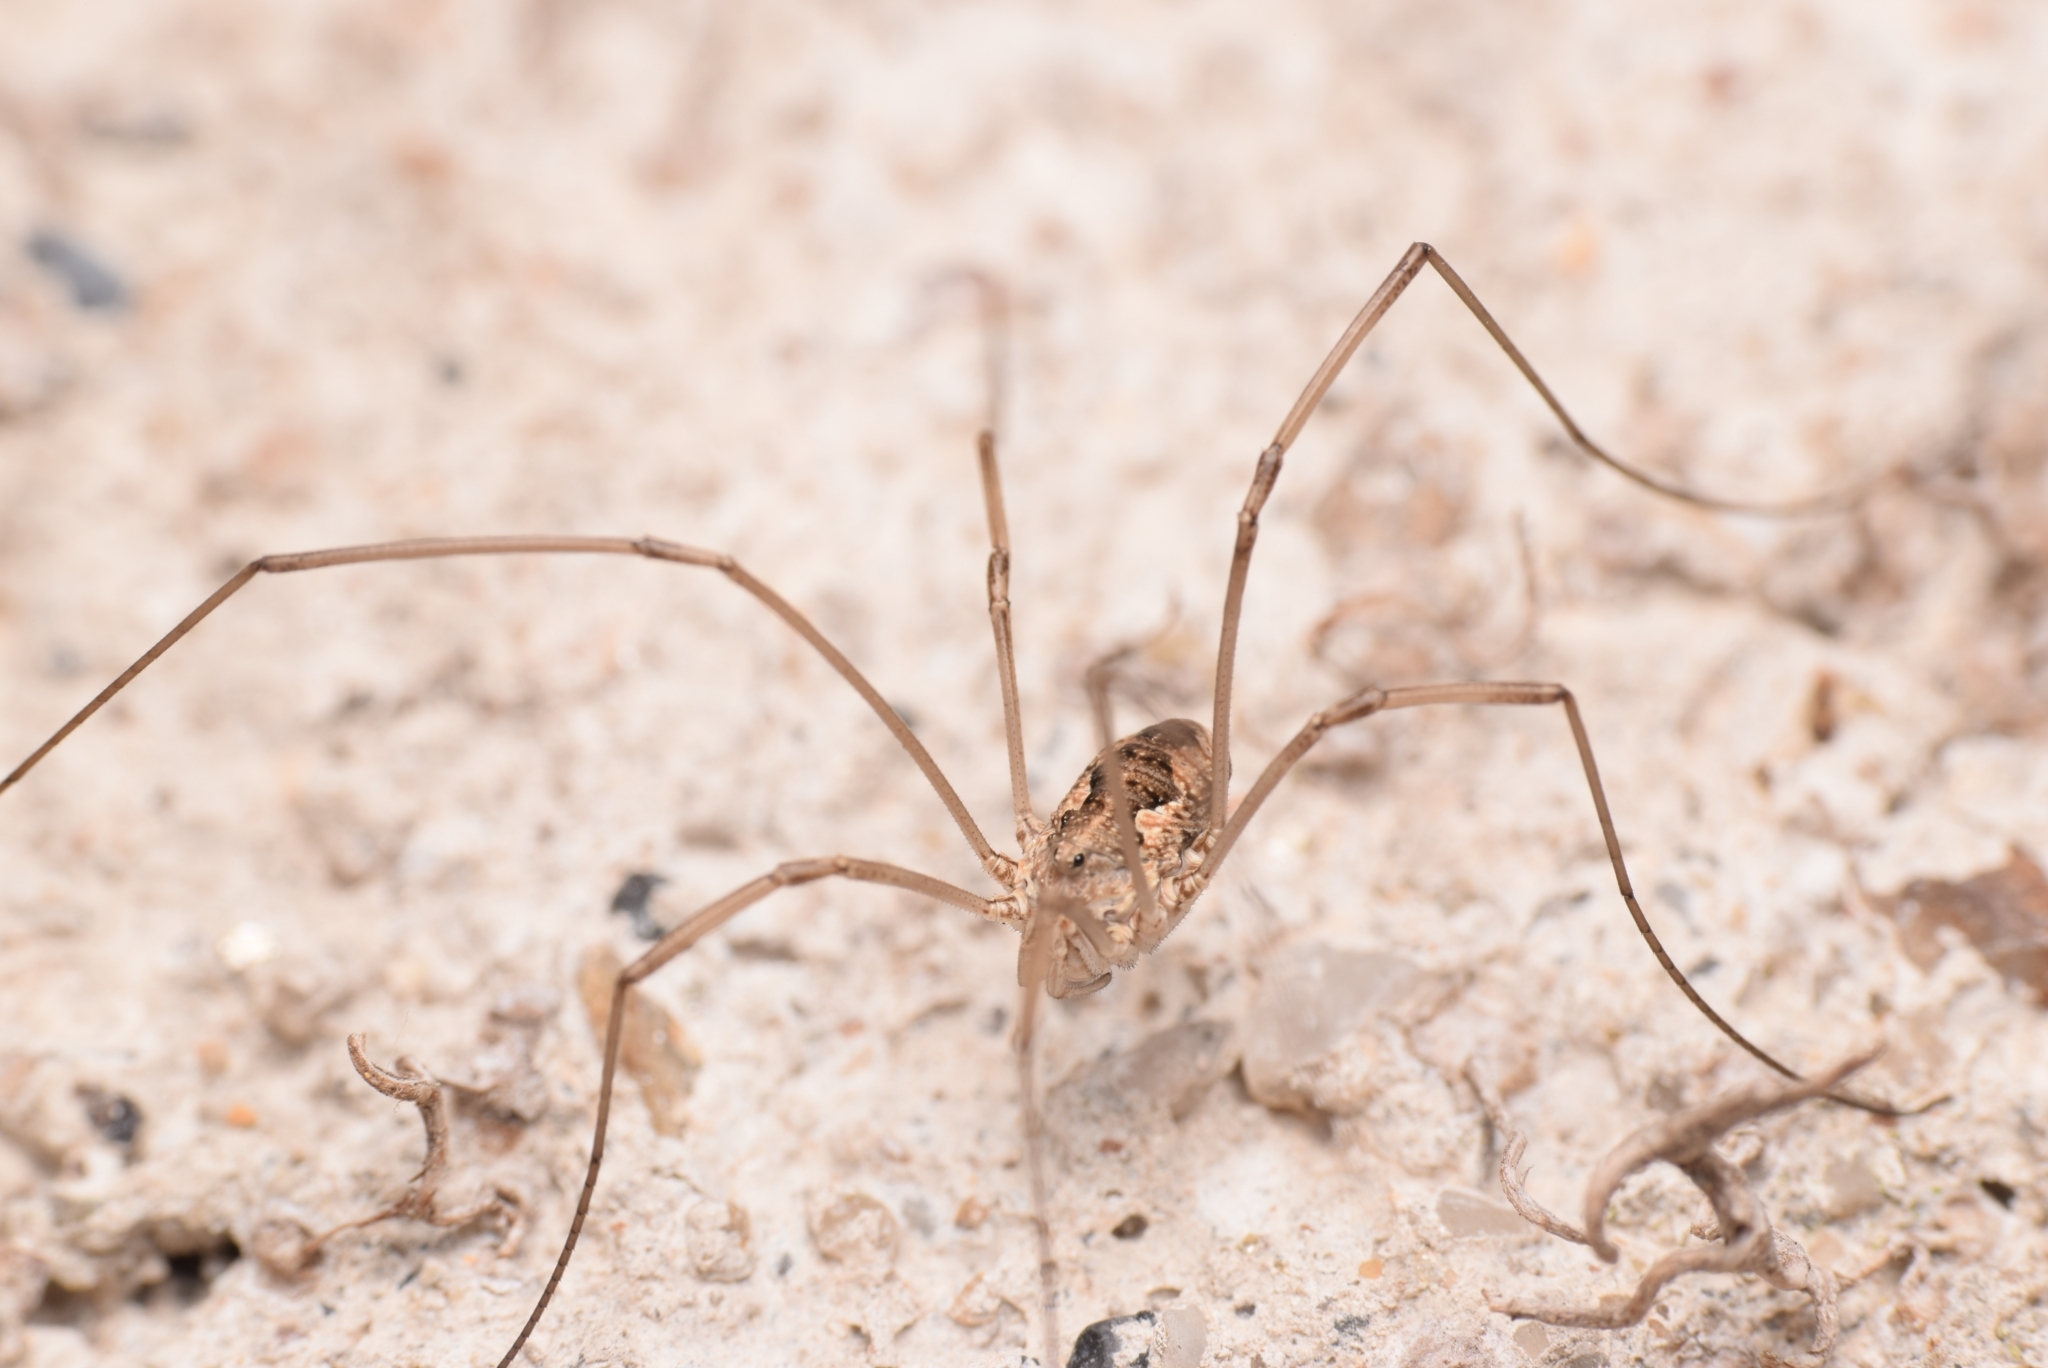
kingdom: Animalia
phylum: Arthropoda
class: Arachnida
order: Opiliones
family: Phalangiidae
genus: Phalangium
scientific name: Phalangium opilio
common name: Daddy longleg
